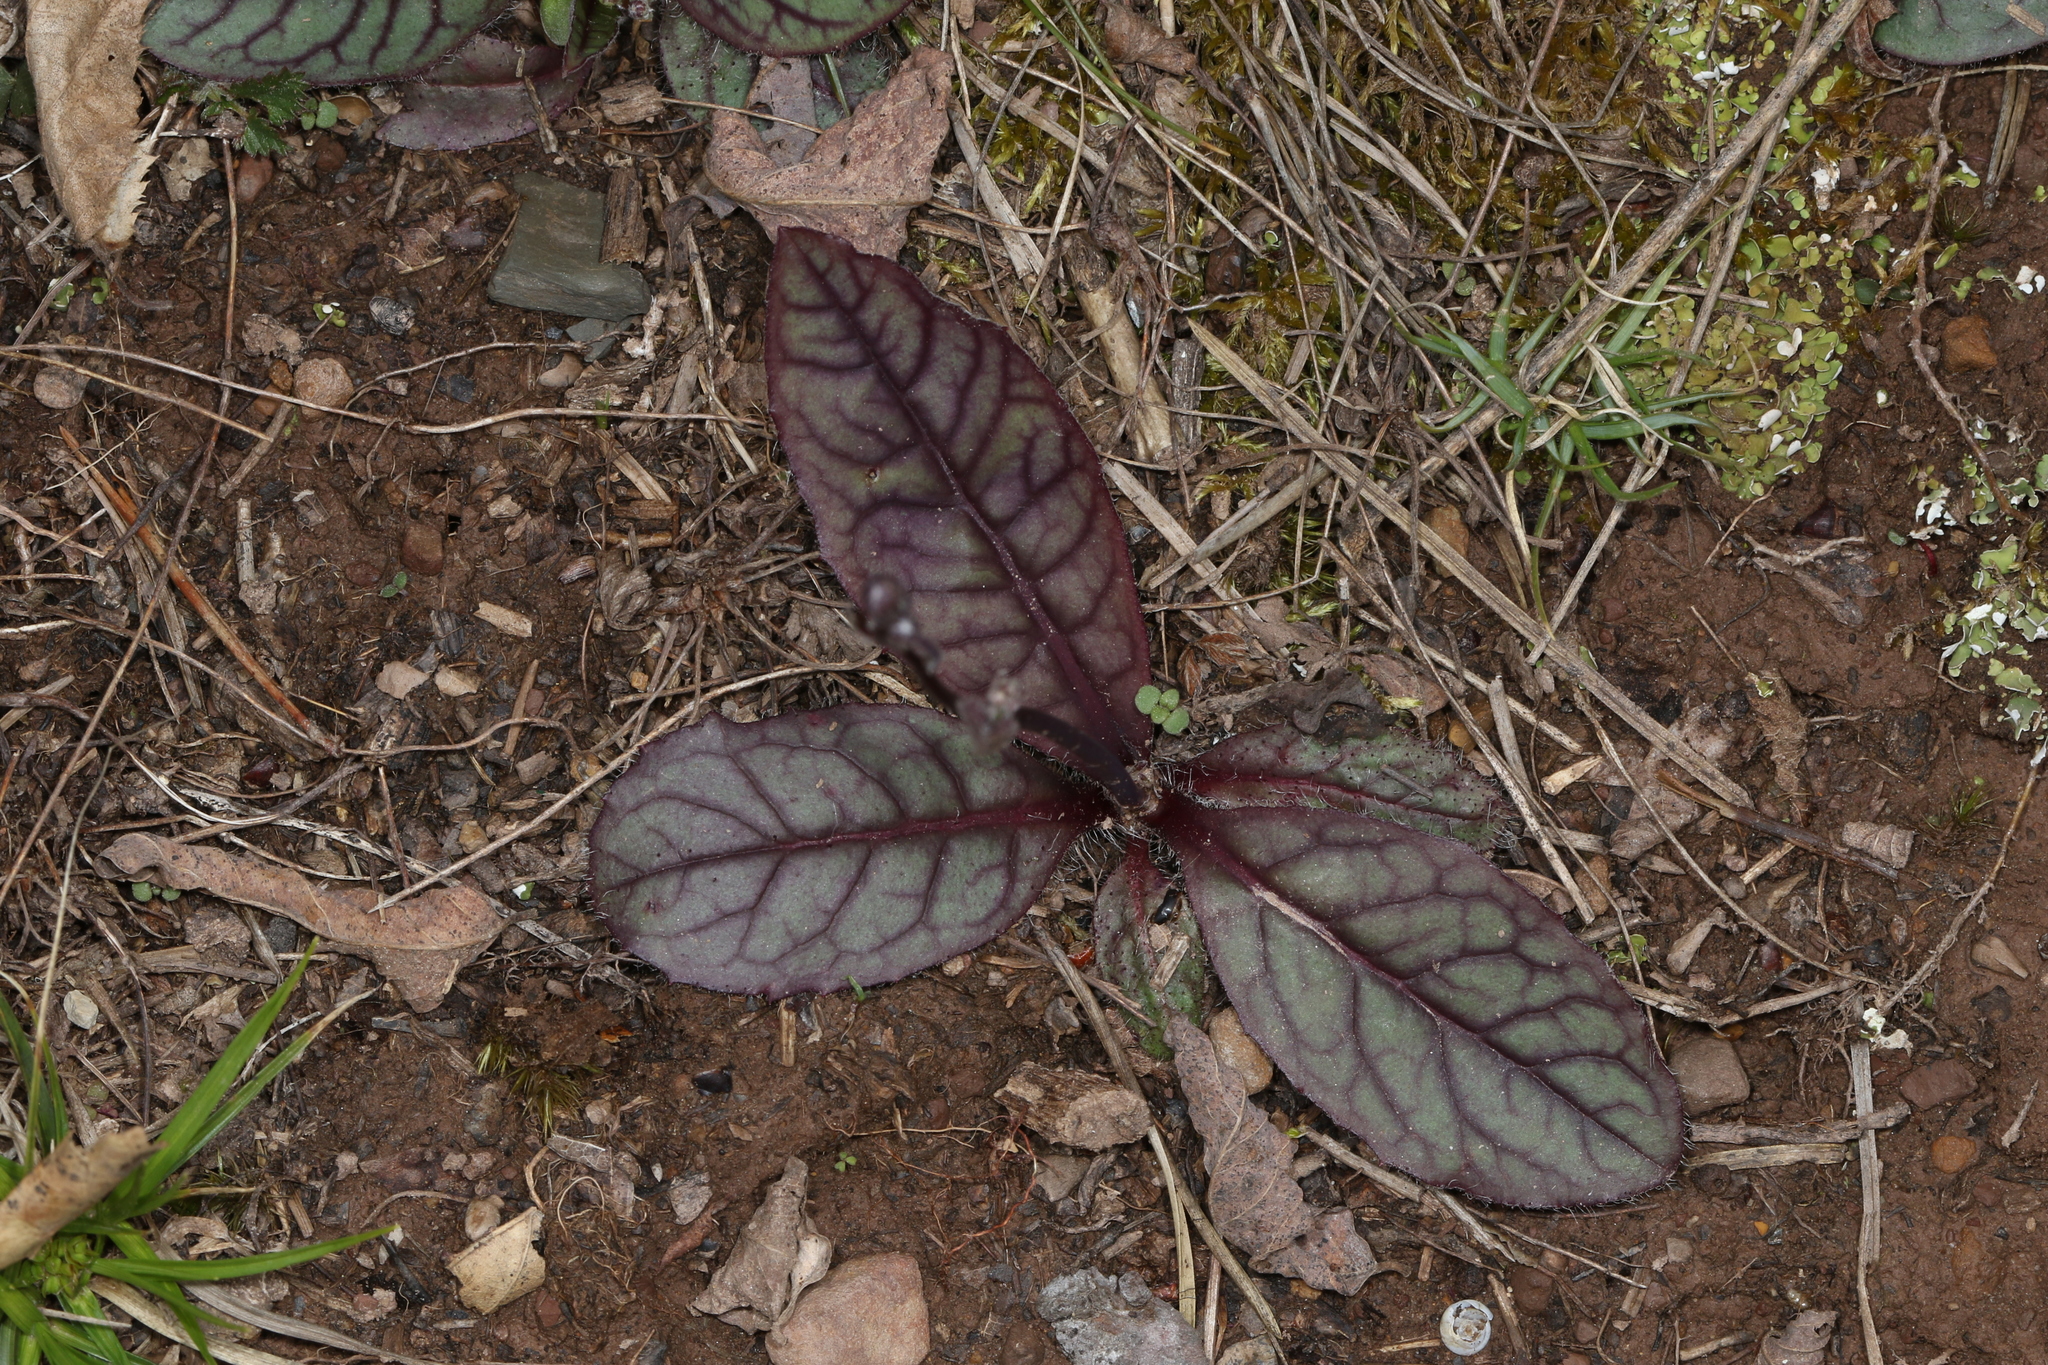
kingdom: Plantae
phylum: Tracheophyta
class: Magnoliopsida
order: Asterales
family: Asteraceae
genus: Hieracium
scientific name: Hieracium venosum
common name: Rattlesnake hawkweed
